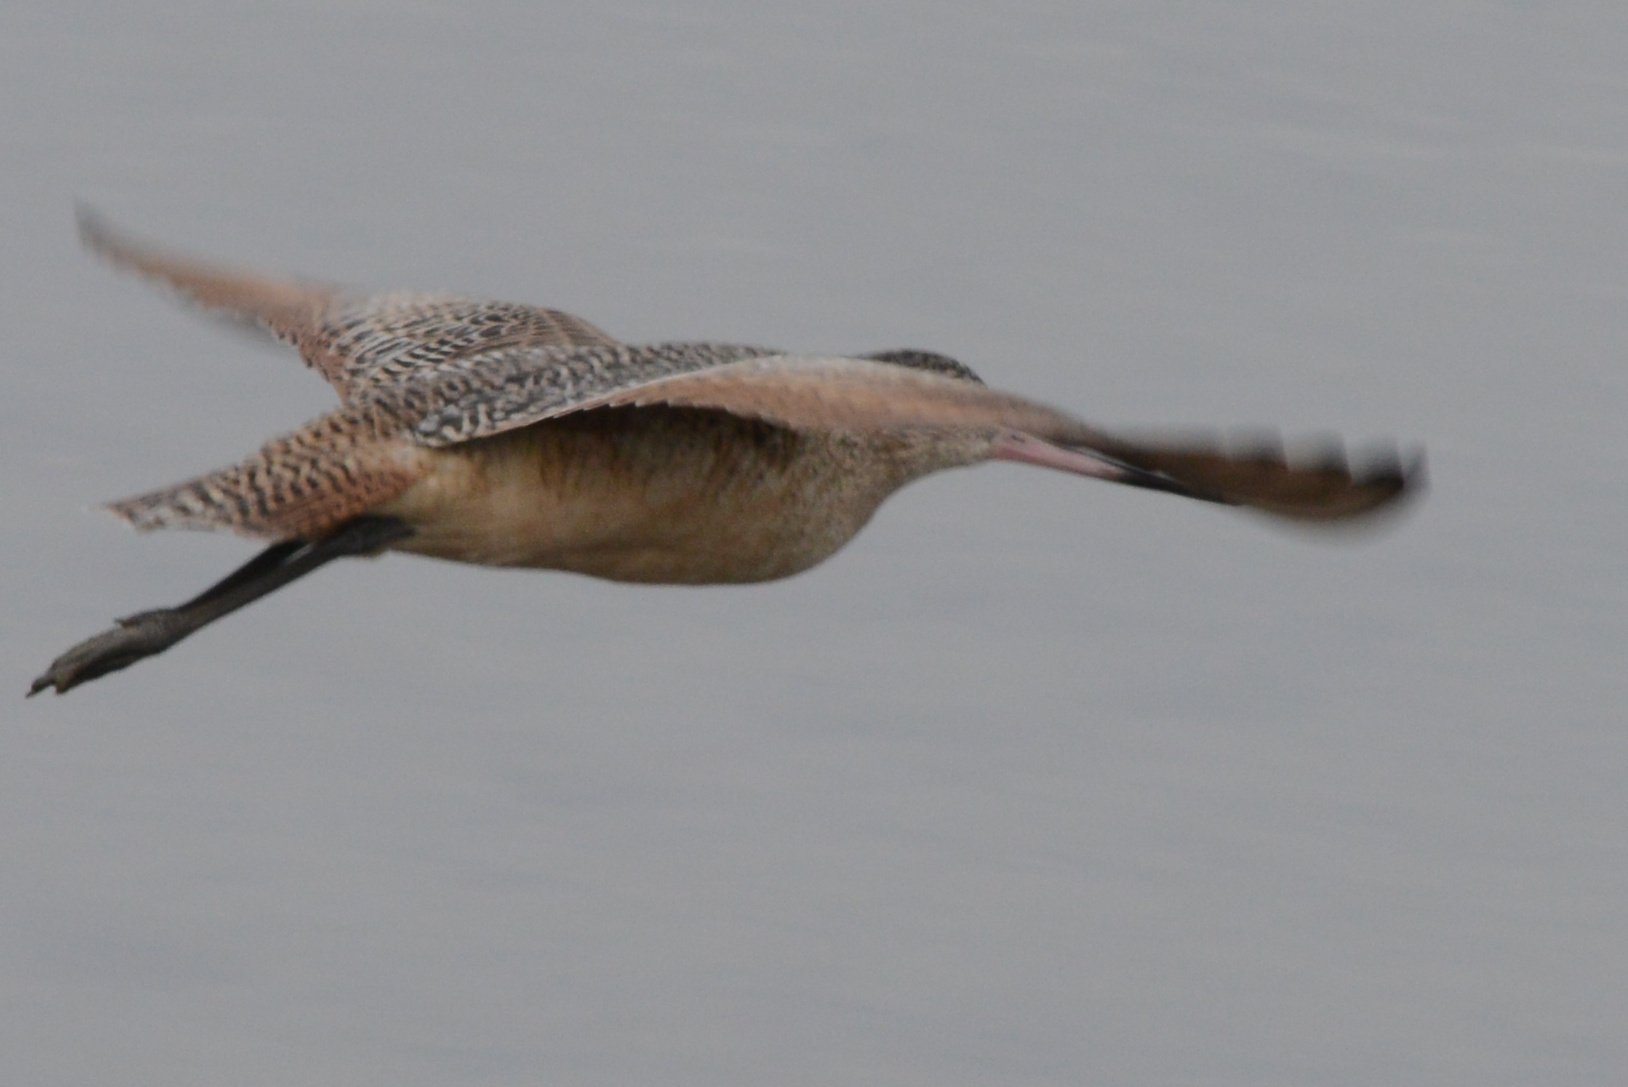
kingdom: Animalia
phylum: Chordata
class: Aves
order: Charadriiformes
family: Scolopacidae
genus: Limosa
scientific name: Limosa fedoa
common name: Marbled godwit
